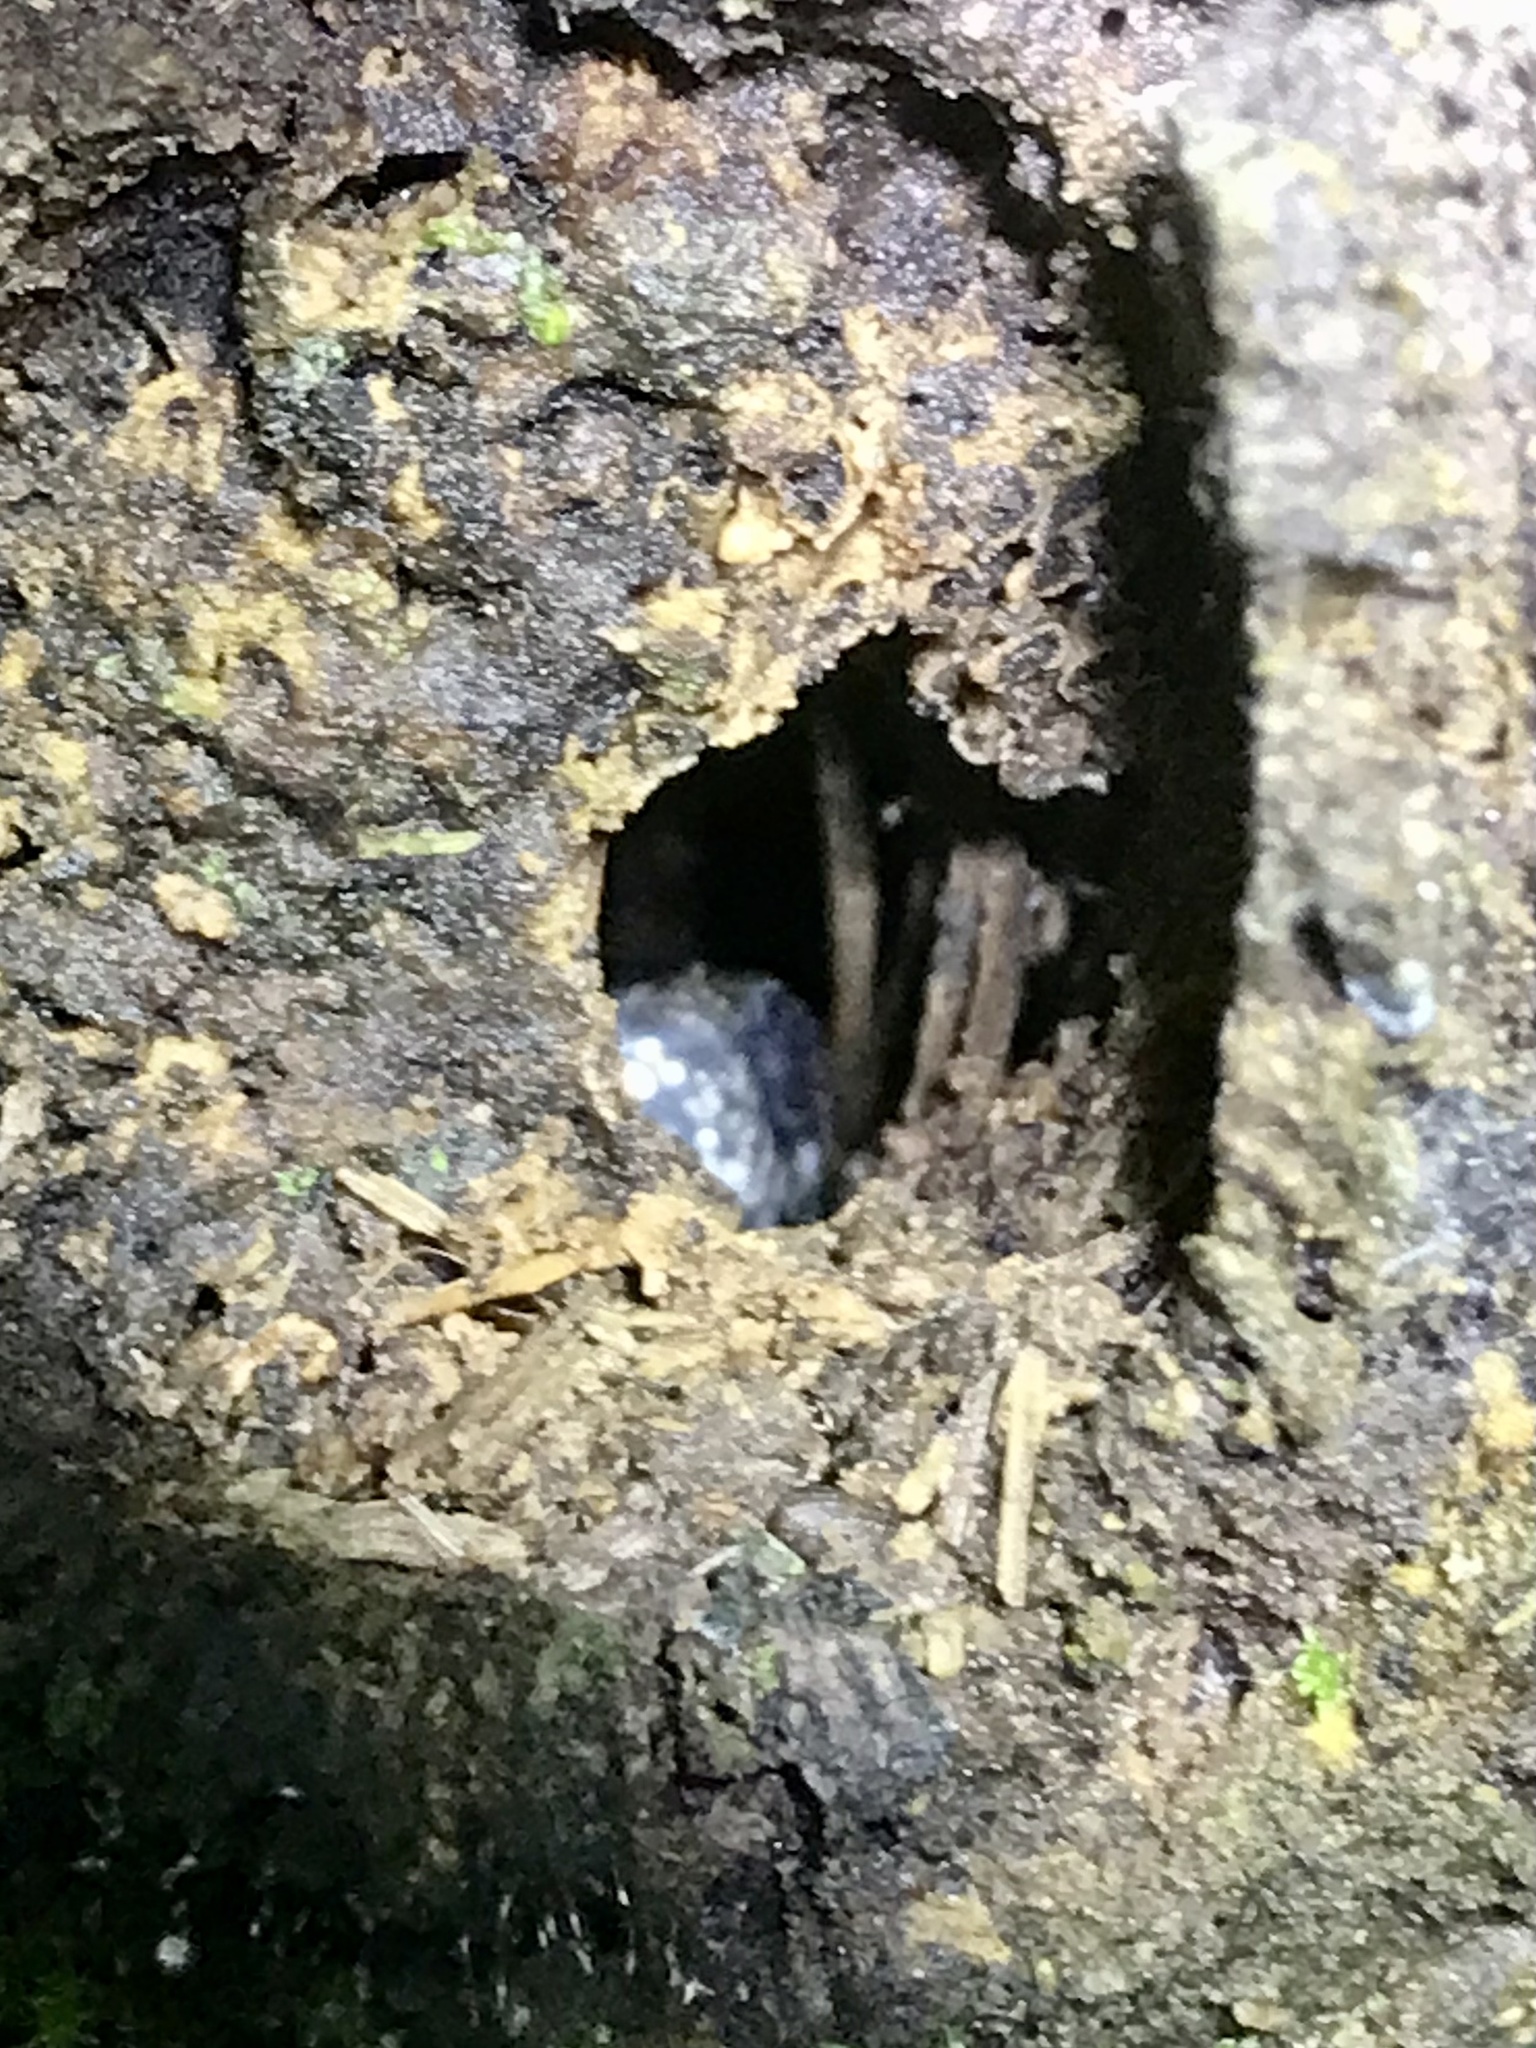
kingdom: Animalia
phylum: Chordata
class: Squamata
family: Colubridae
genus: Sibon
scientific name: Sibon nebulatus
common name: Cloudy snail-eating snake
